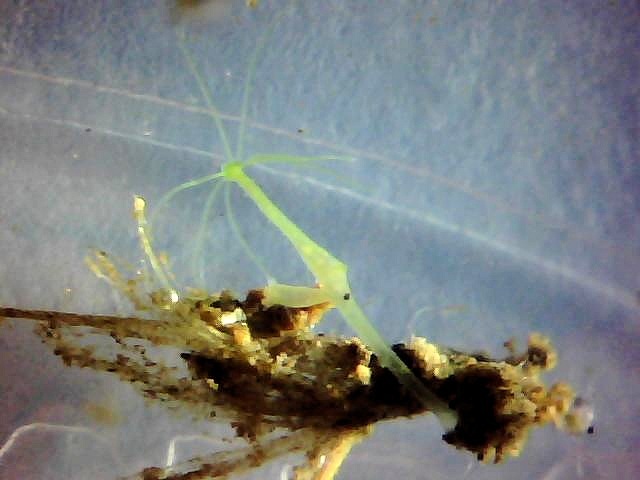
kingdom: Animalia
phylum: Cnidaria
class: Hydrozoa
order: Anthoathecata
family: Hydridae
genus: Hydra
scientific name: Hydra viridissima
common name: Green hydra
